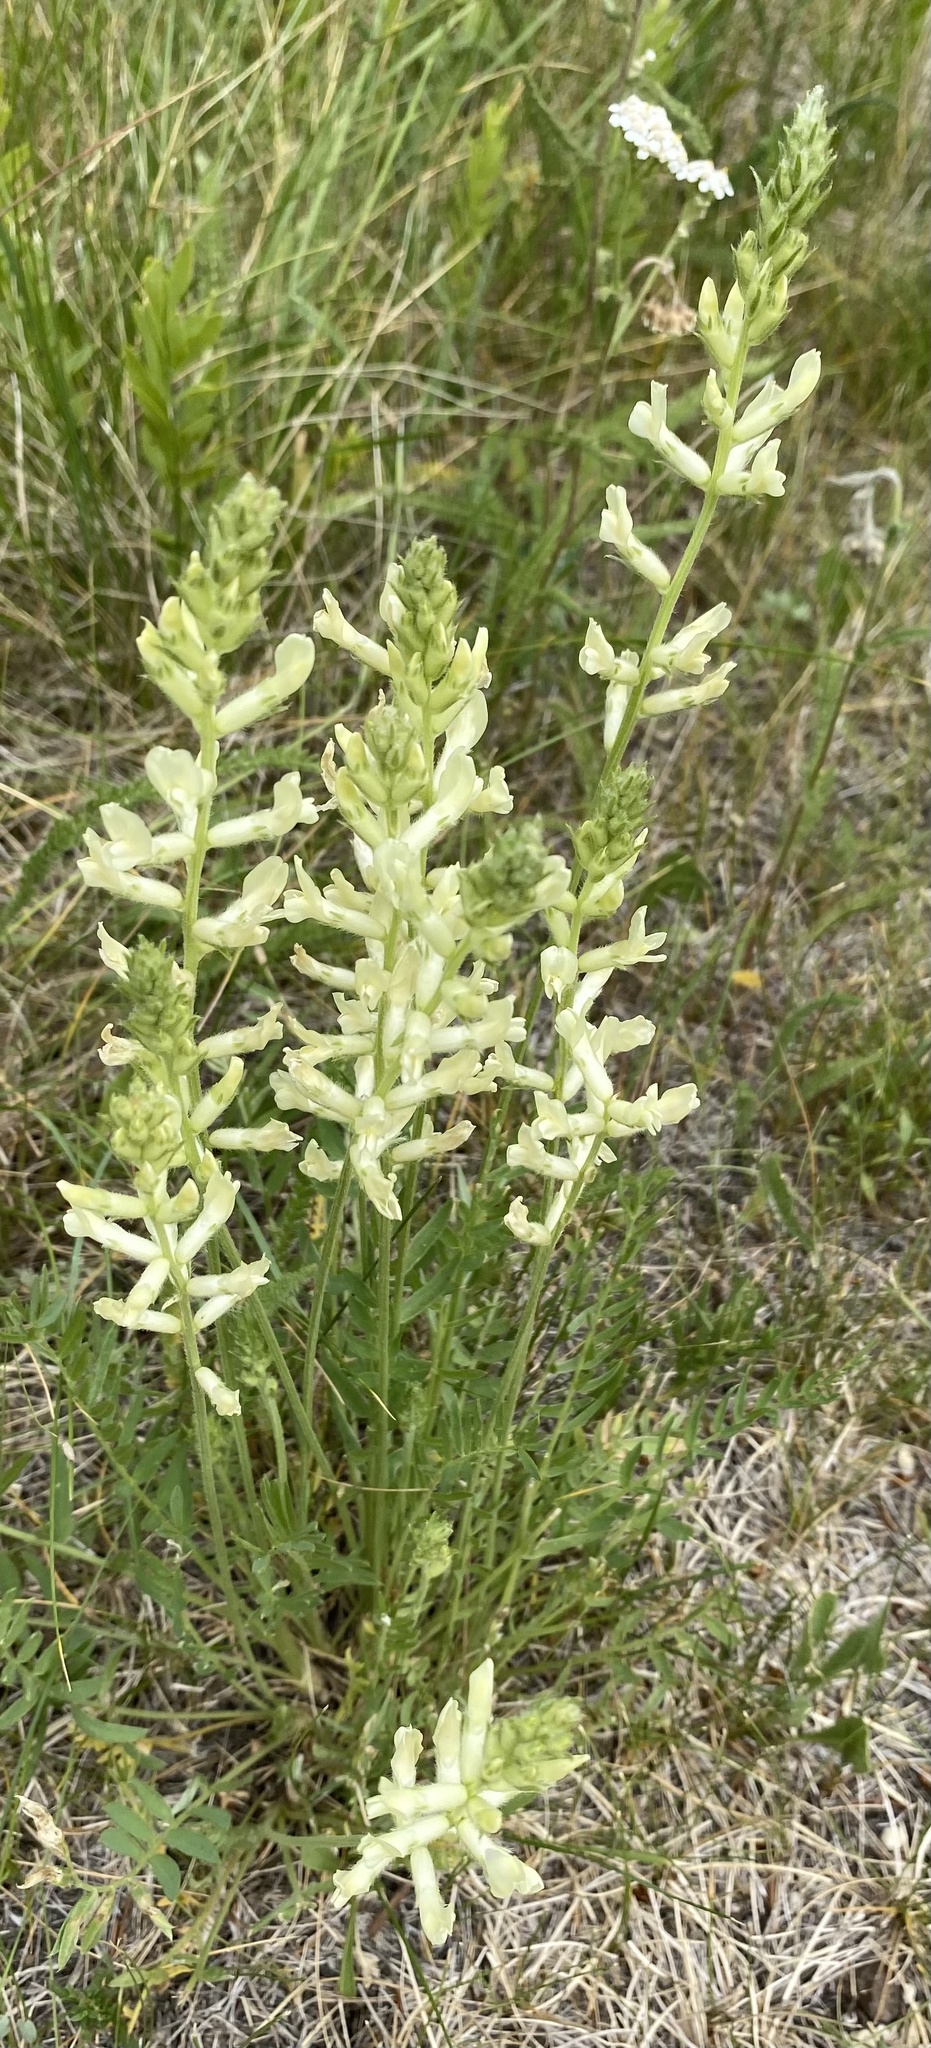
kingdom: Plantae
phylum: Tracheophyta
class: Magnoliopsida
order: Fabales
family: Fabaceae
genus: Oxytropis
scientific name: Oxytropis campestris
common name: Field locoweed
